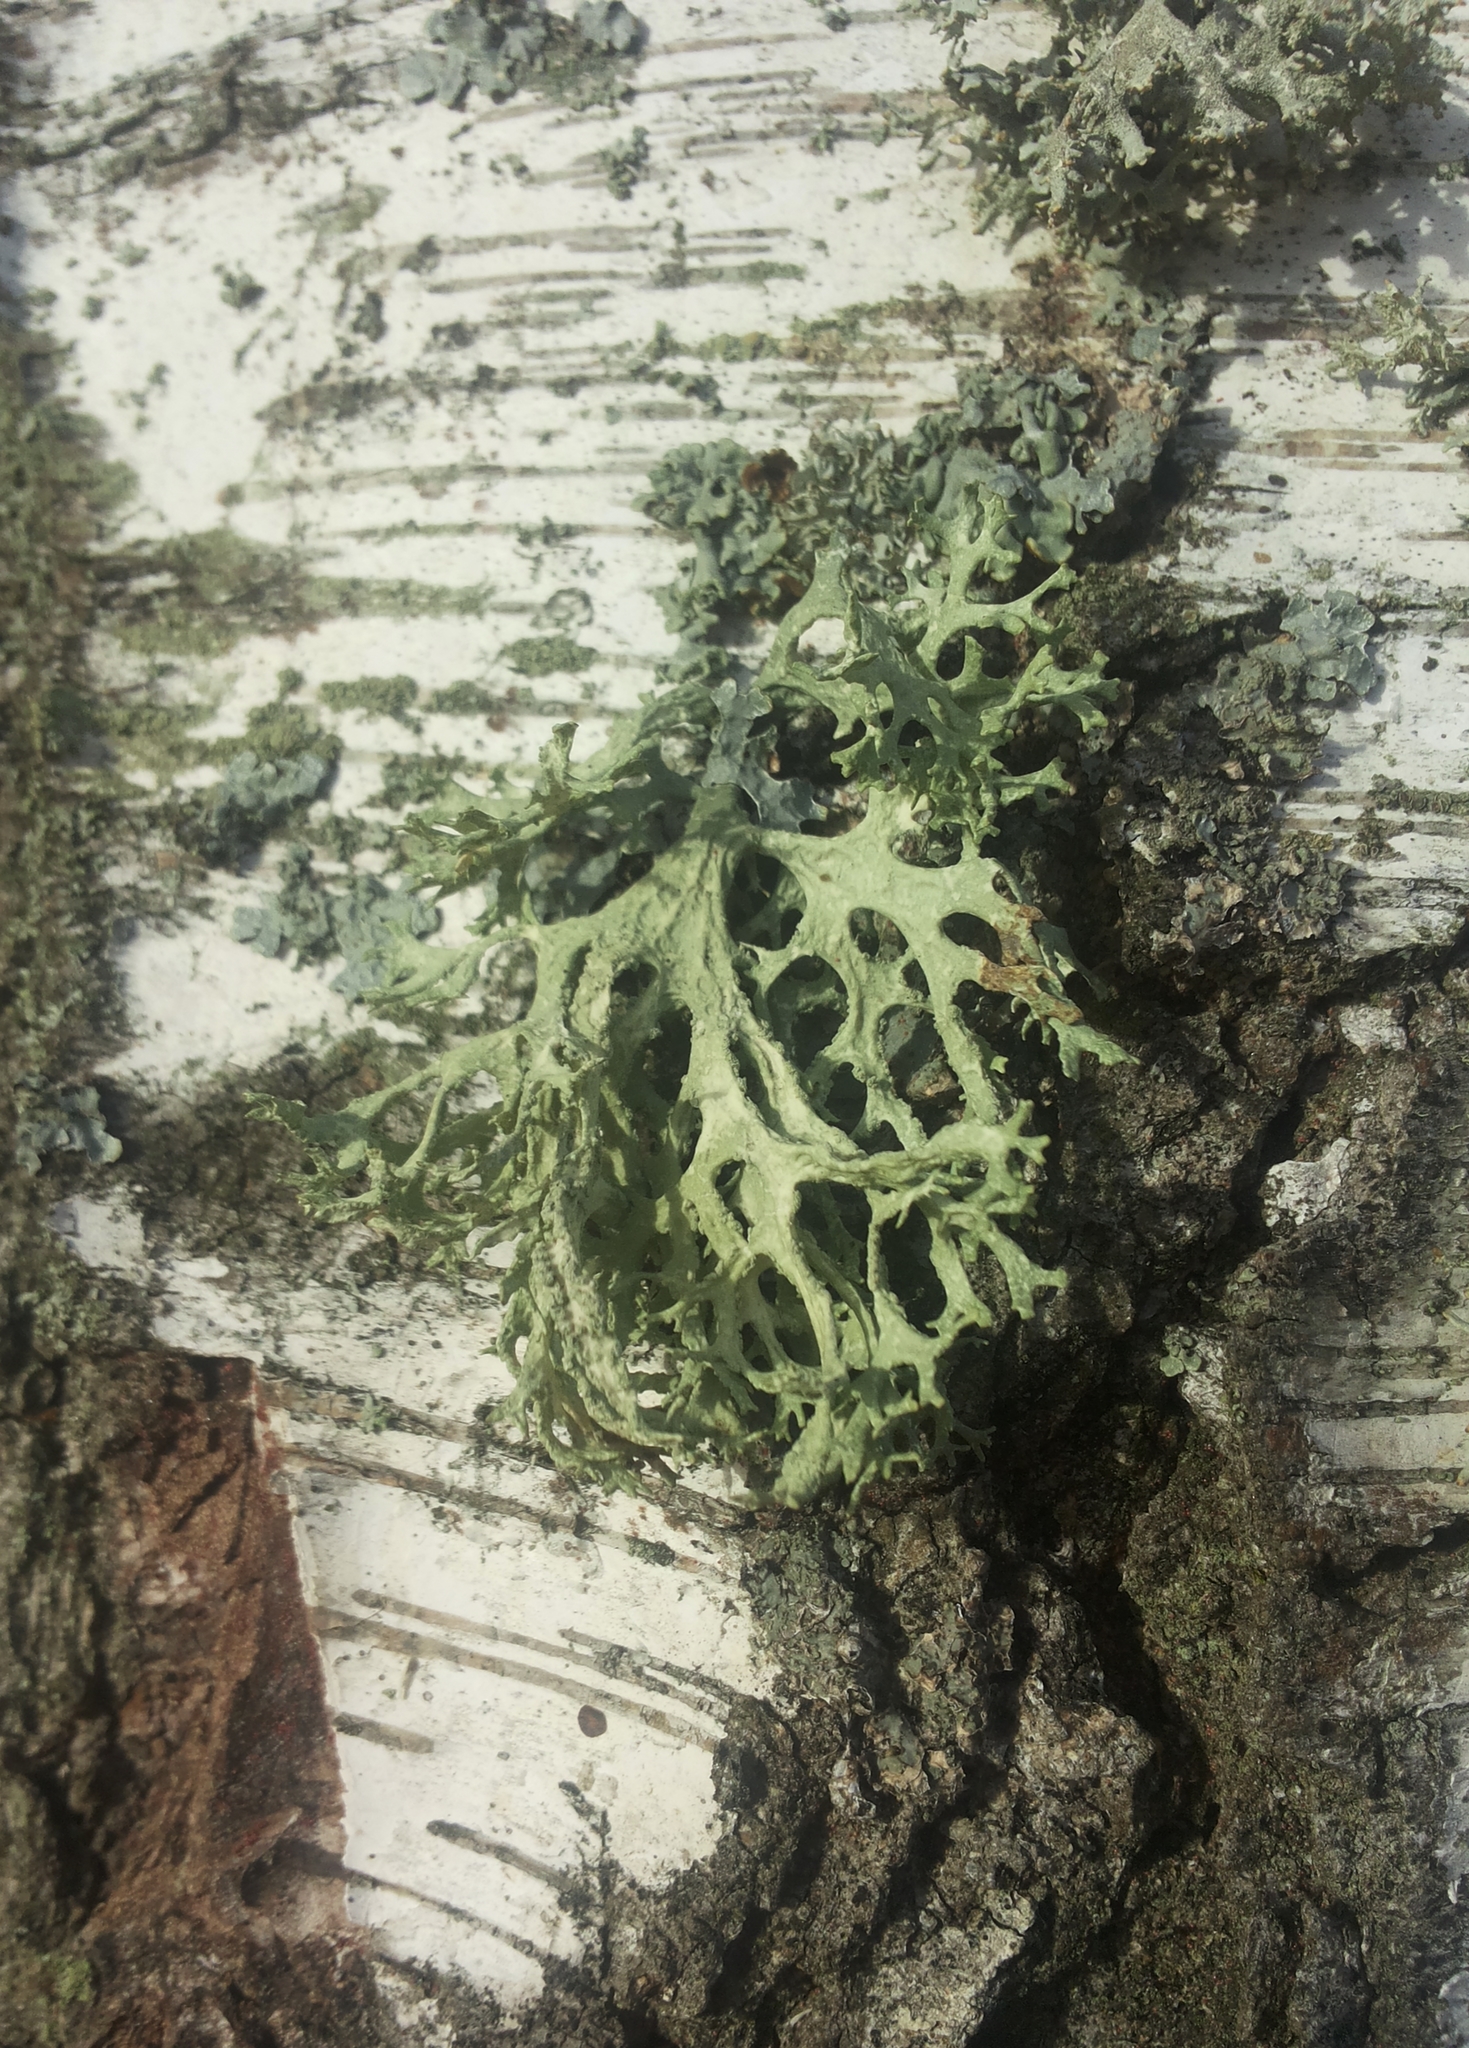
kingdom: Fungi
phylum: Ascomycota
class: Lecanoromycetes
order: Lecanorales
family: Parmeliaceae
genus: Evernia
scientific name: Evernia prunastri
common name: Oak moss
